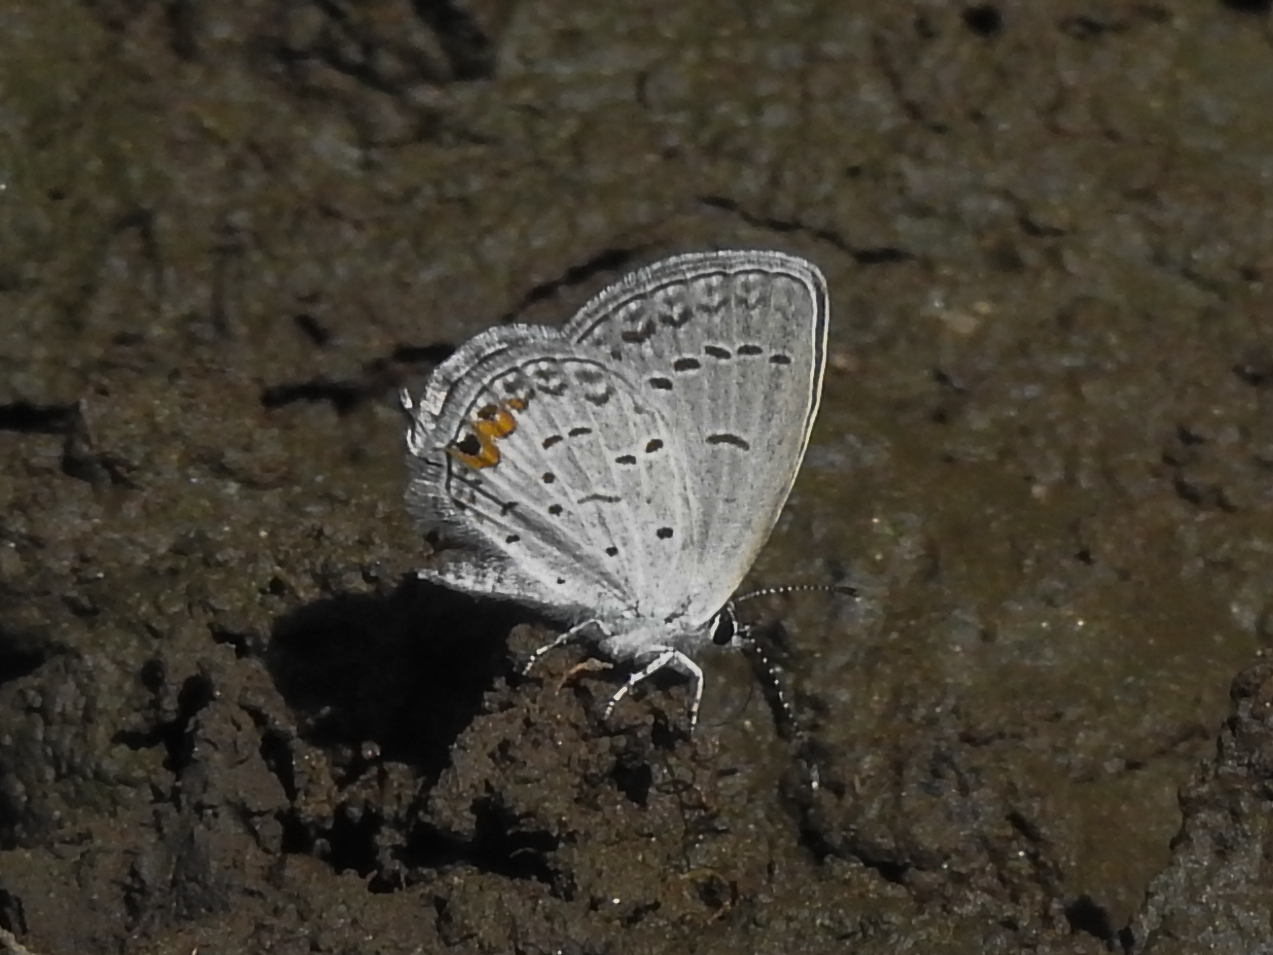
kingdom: Animalia
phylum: Arthropoda
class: Insecta
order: Lepidoptera
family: Lycaenidae
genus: Elkalyce
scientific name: Elkalyce comyntas
